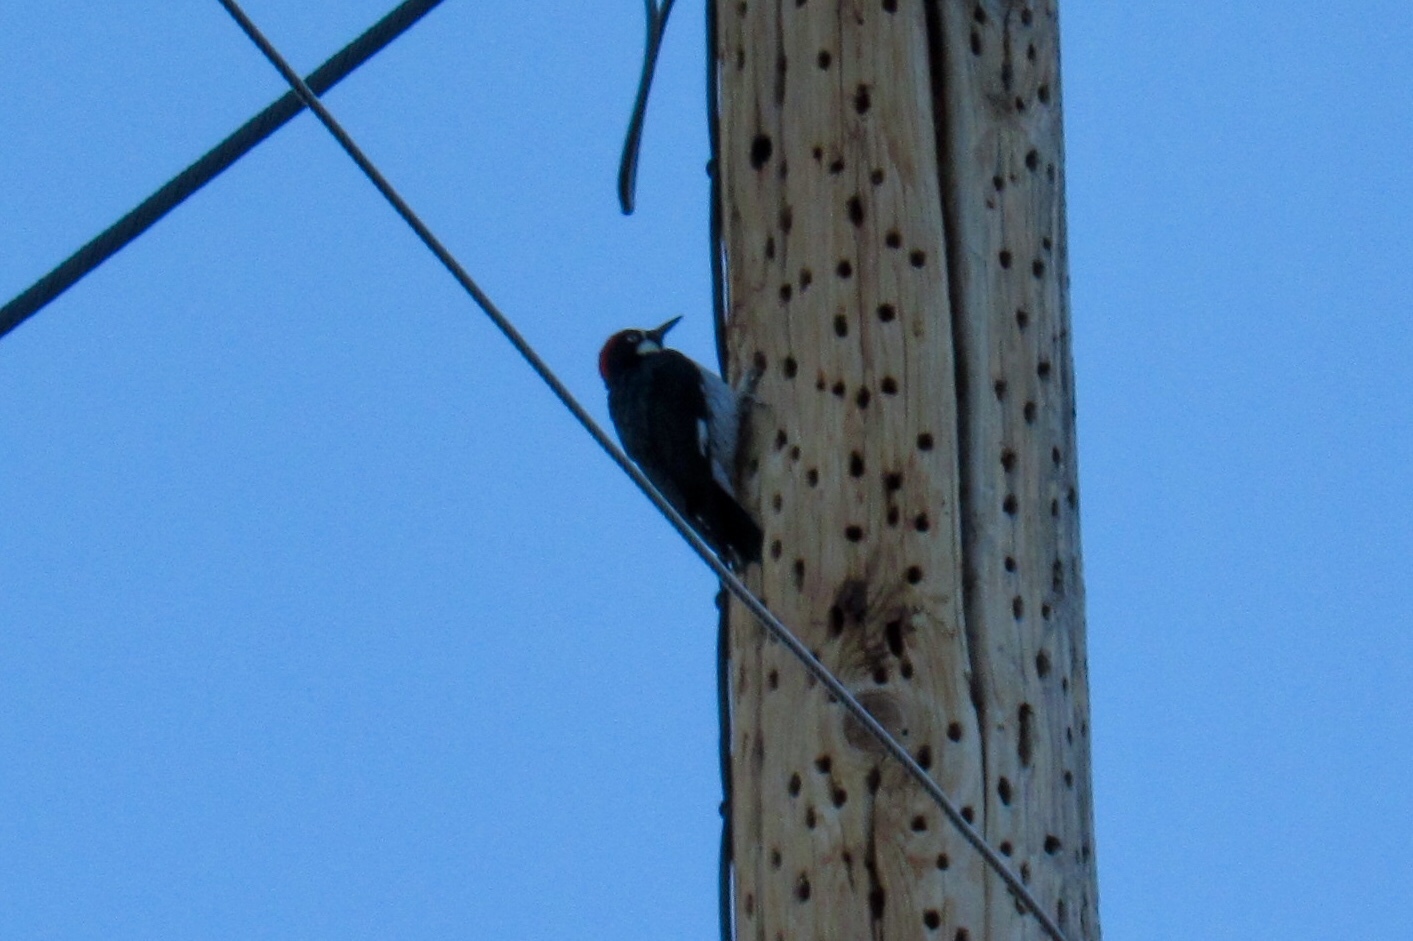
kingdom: Animalia
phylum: Chordata
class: Aves
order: Piciformes
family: Picidae
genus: Melanerpes
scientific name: Melanerpes formicivorus
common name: Acorn woodpecker
